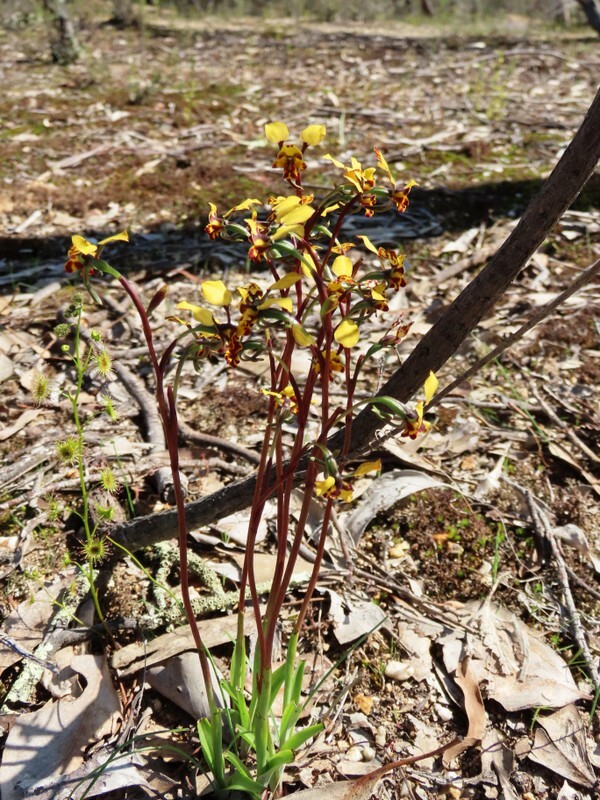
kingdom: Plantae
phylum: Tracheophyta
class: Liliopsida
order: Asparagales
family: Orchidaceae
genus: Diuris
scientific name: Diuris pardina
